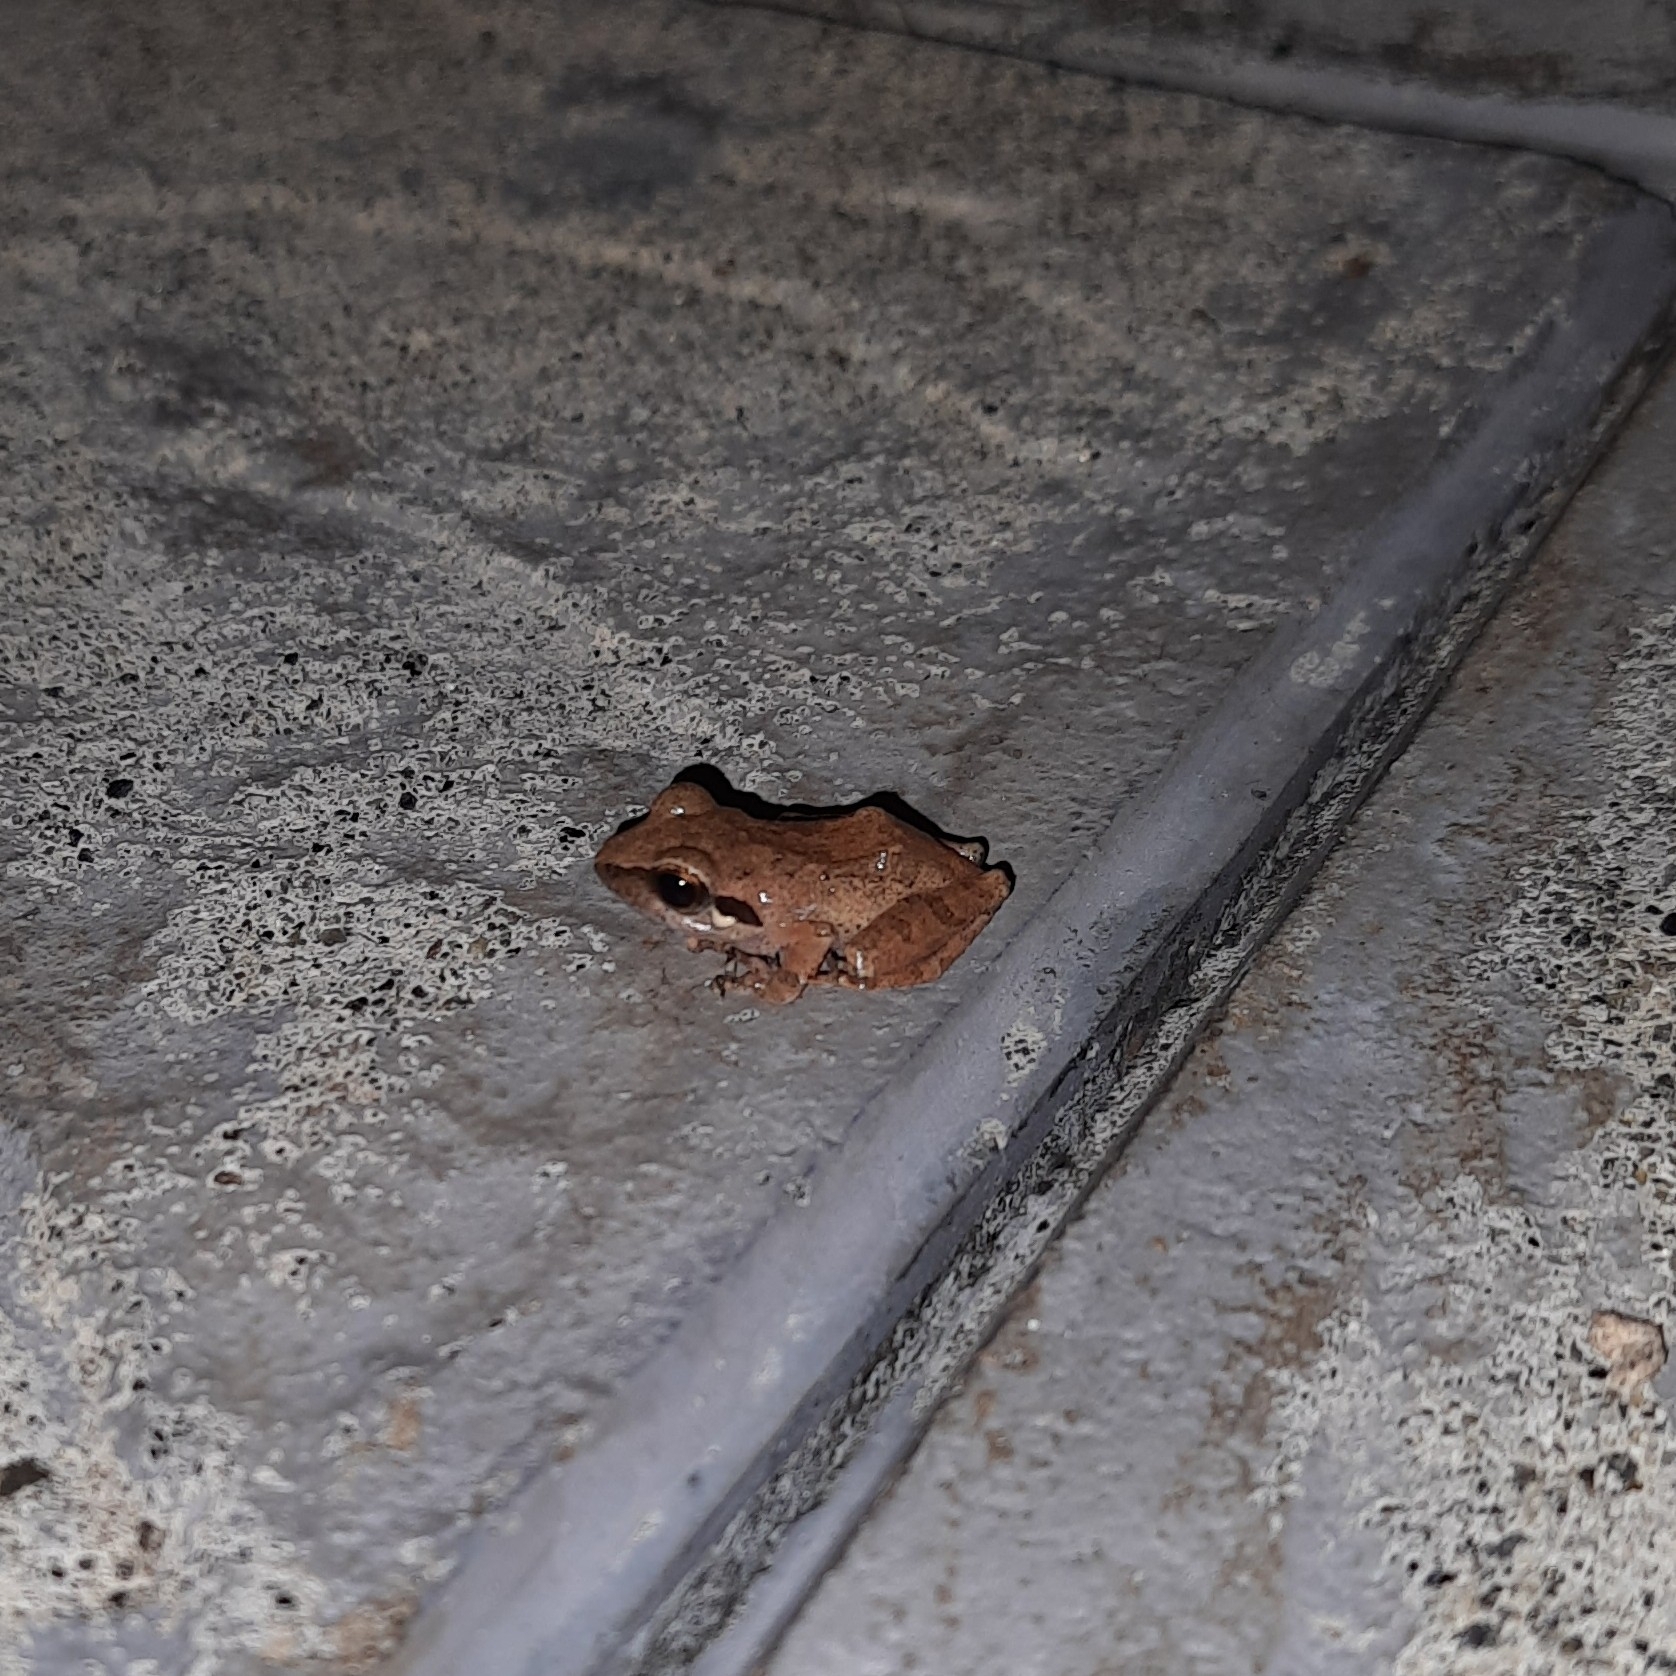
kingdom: Animalia
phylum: Chordata
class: Amphibia
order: Anura
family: Rhacophoridae
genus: Pseudophilautus
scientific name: Pseudophilautus wynaadensis
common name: Dark-eared bush frog
